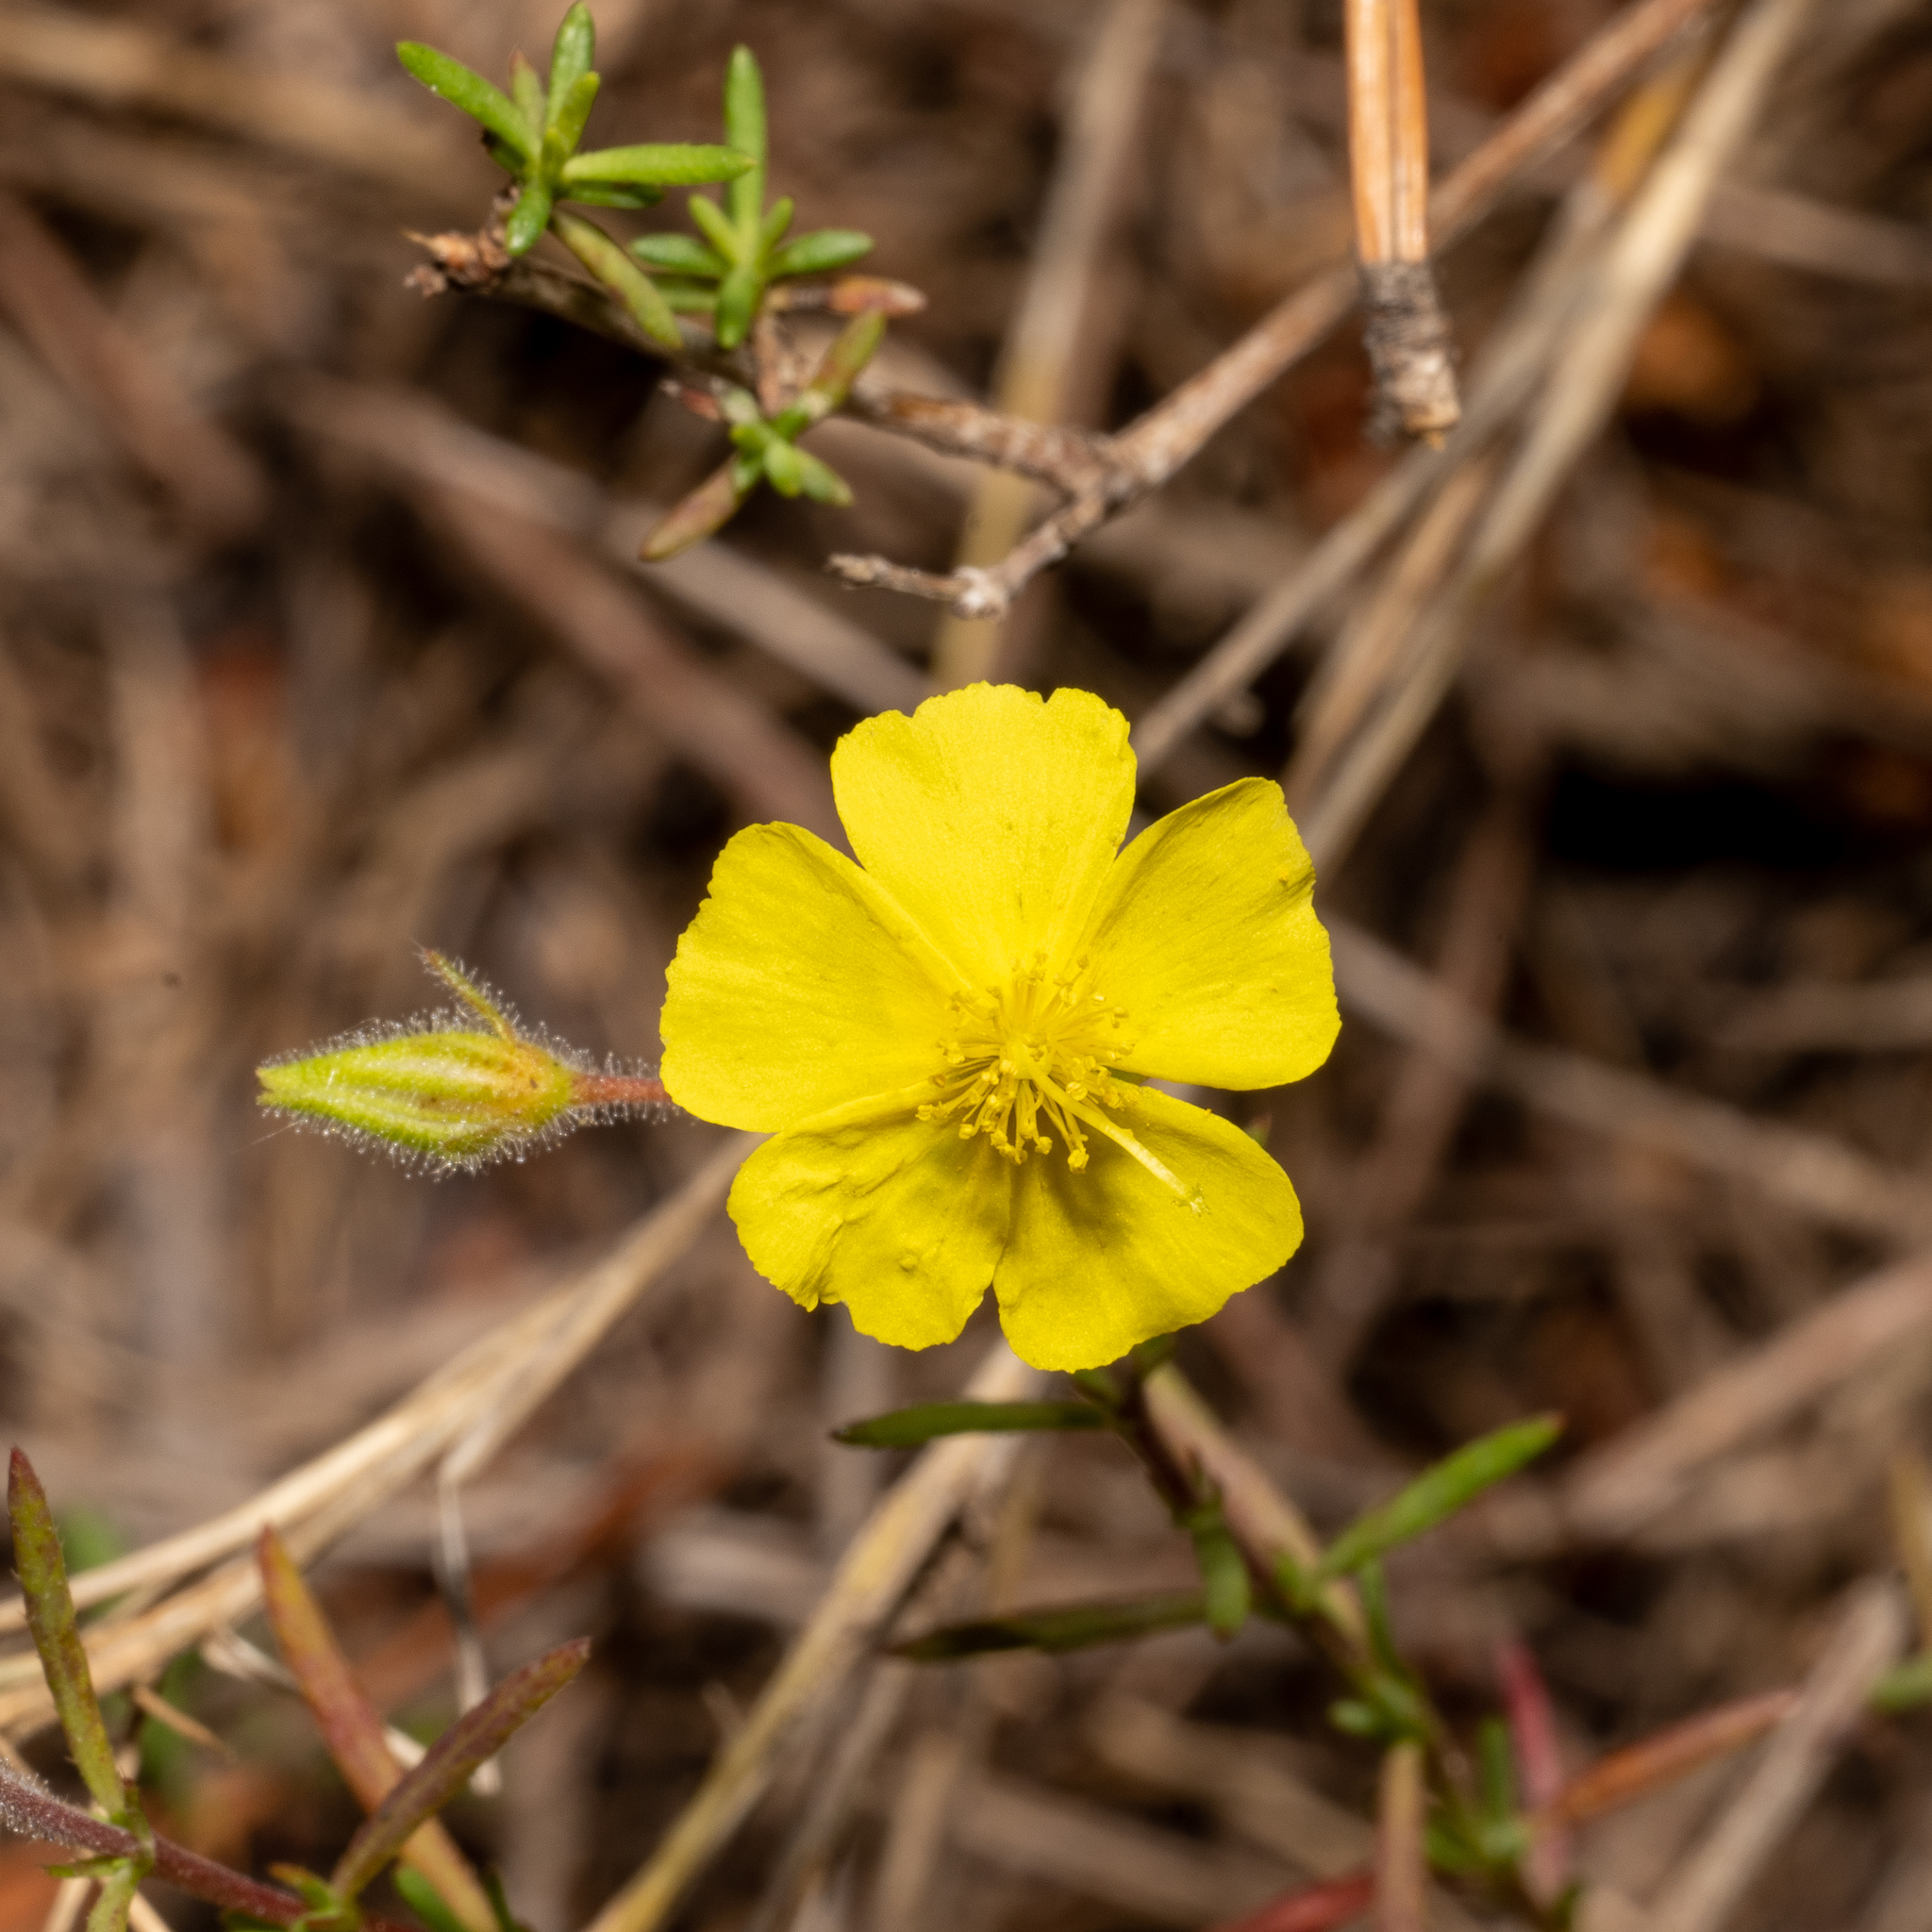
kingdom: Plantae
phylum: Tracheophyta
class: Magnoliopsida
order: Malvales
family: Cistaceae
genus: Fumana
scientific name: Fumana laevis
